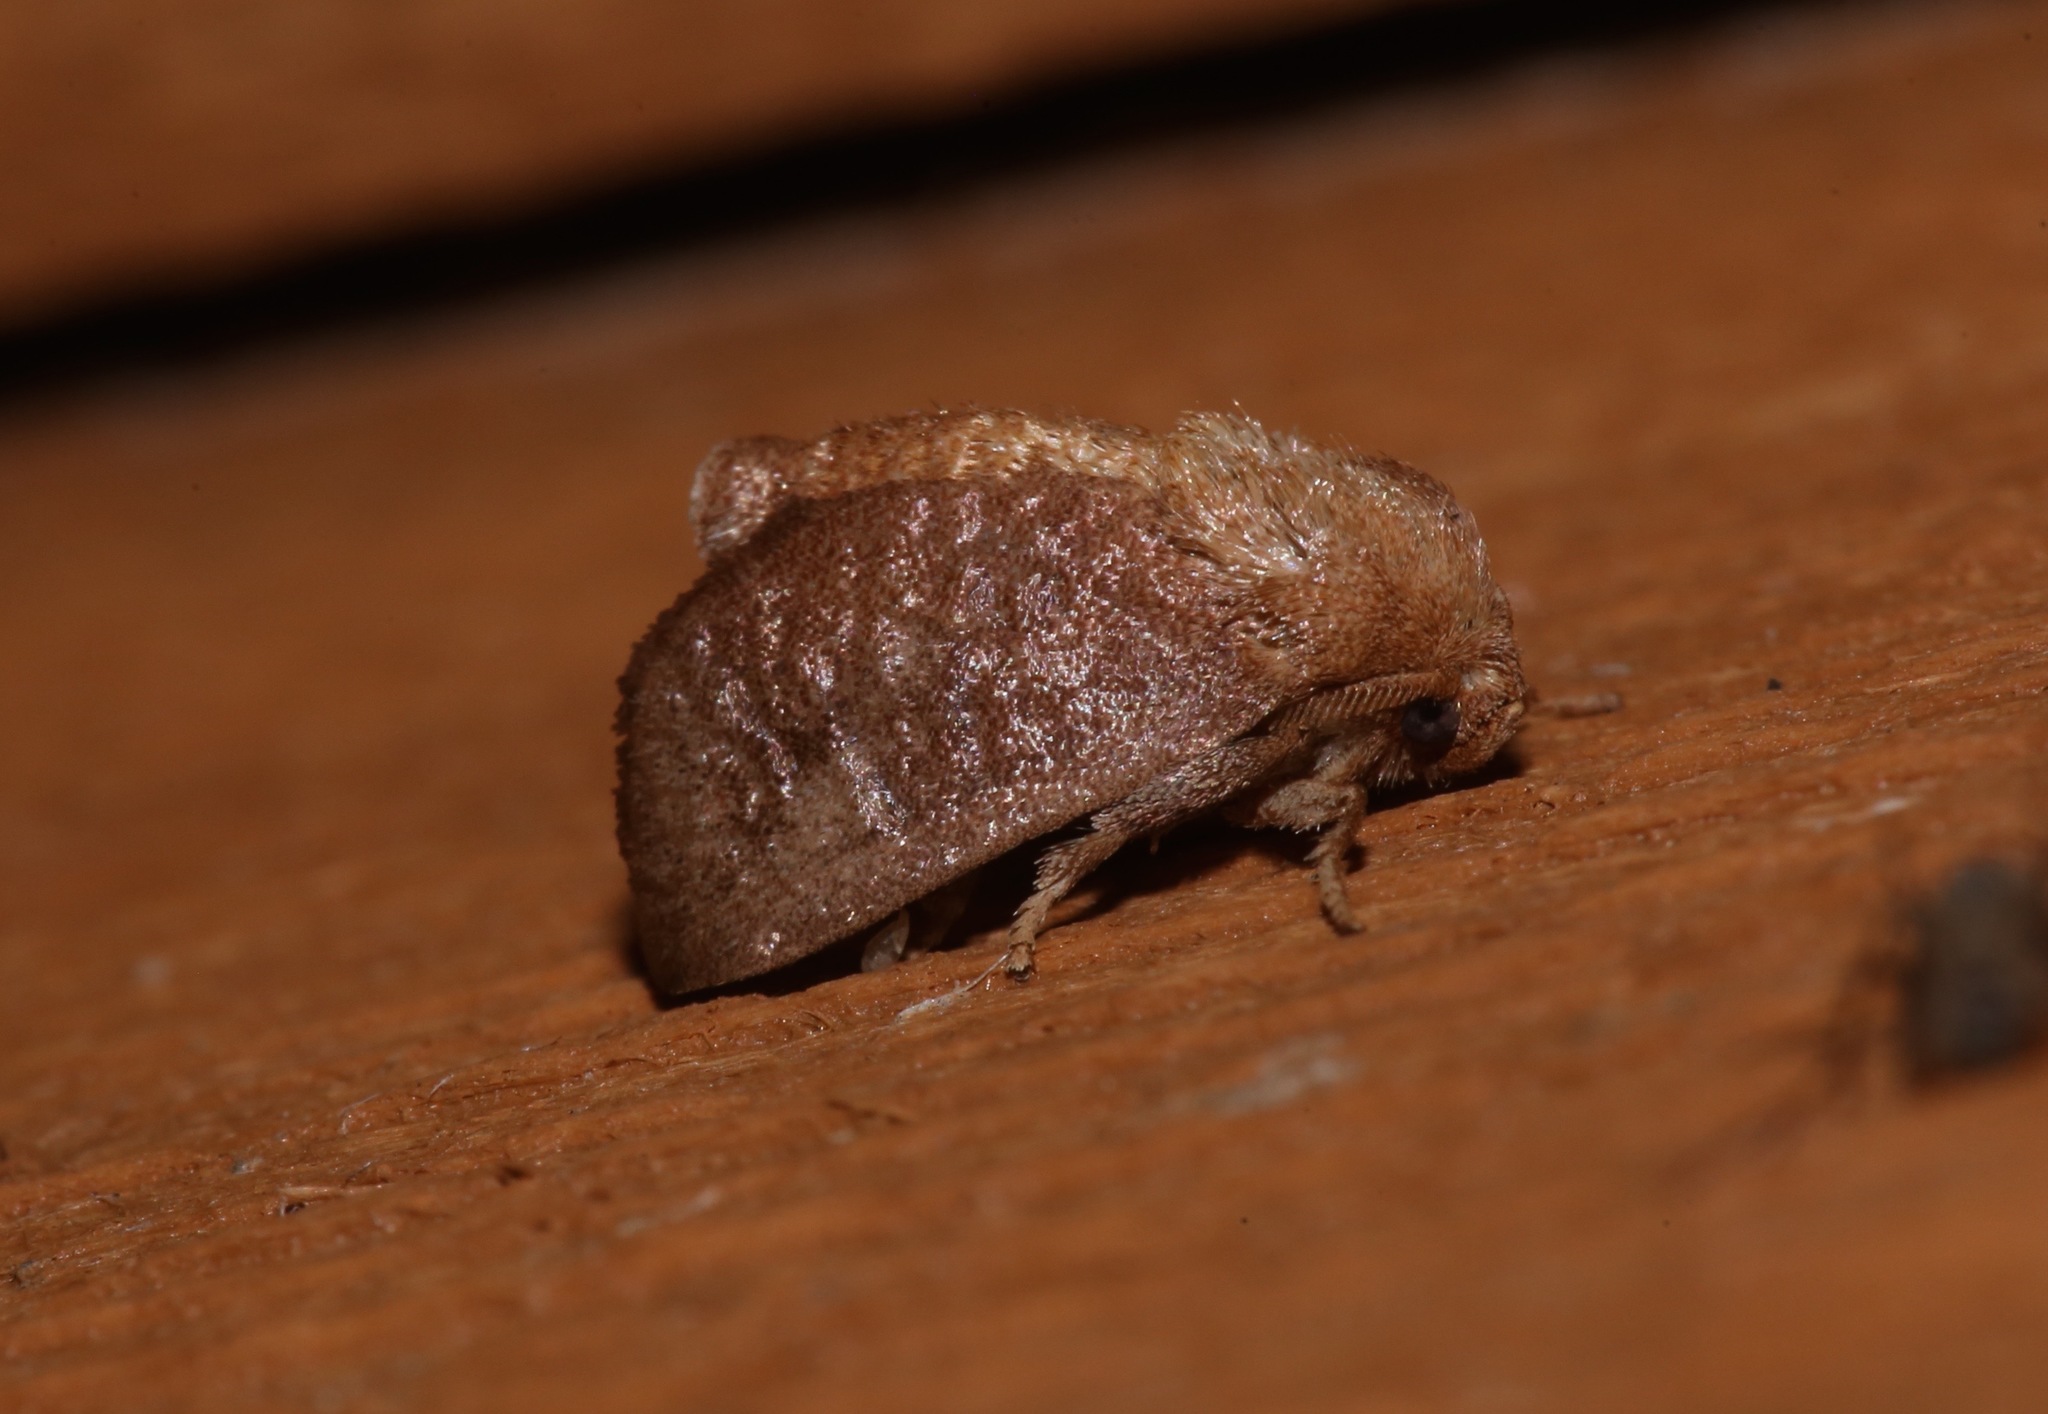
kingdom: Animalia
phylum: Arthropoda
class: Insecta
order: Lepidoptera
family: Limacodidae
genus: Isa
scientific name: Isa textula
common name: Crowned slug moth
